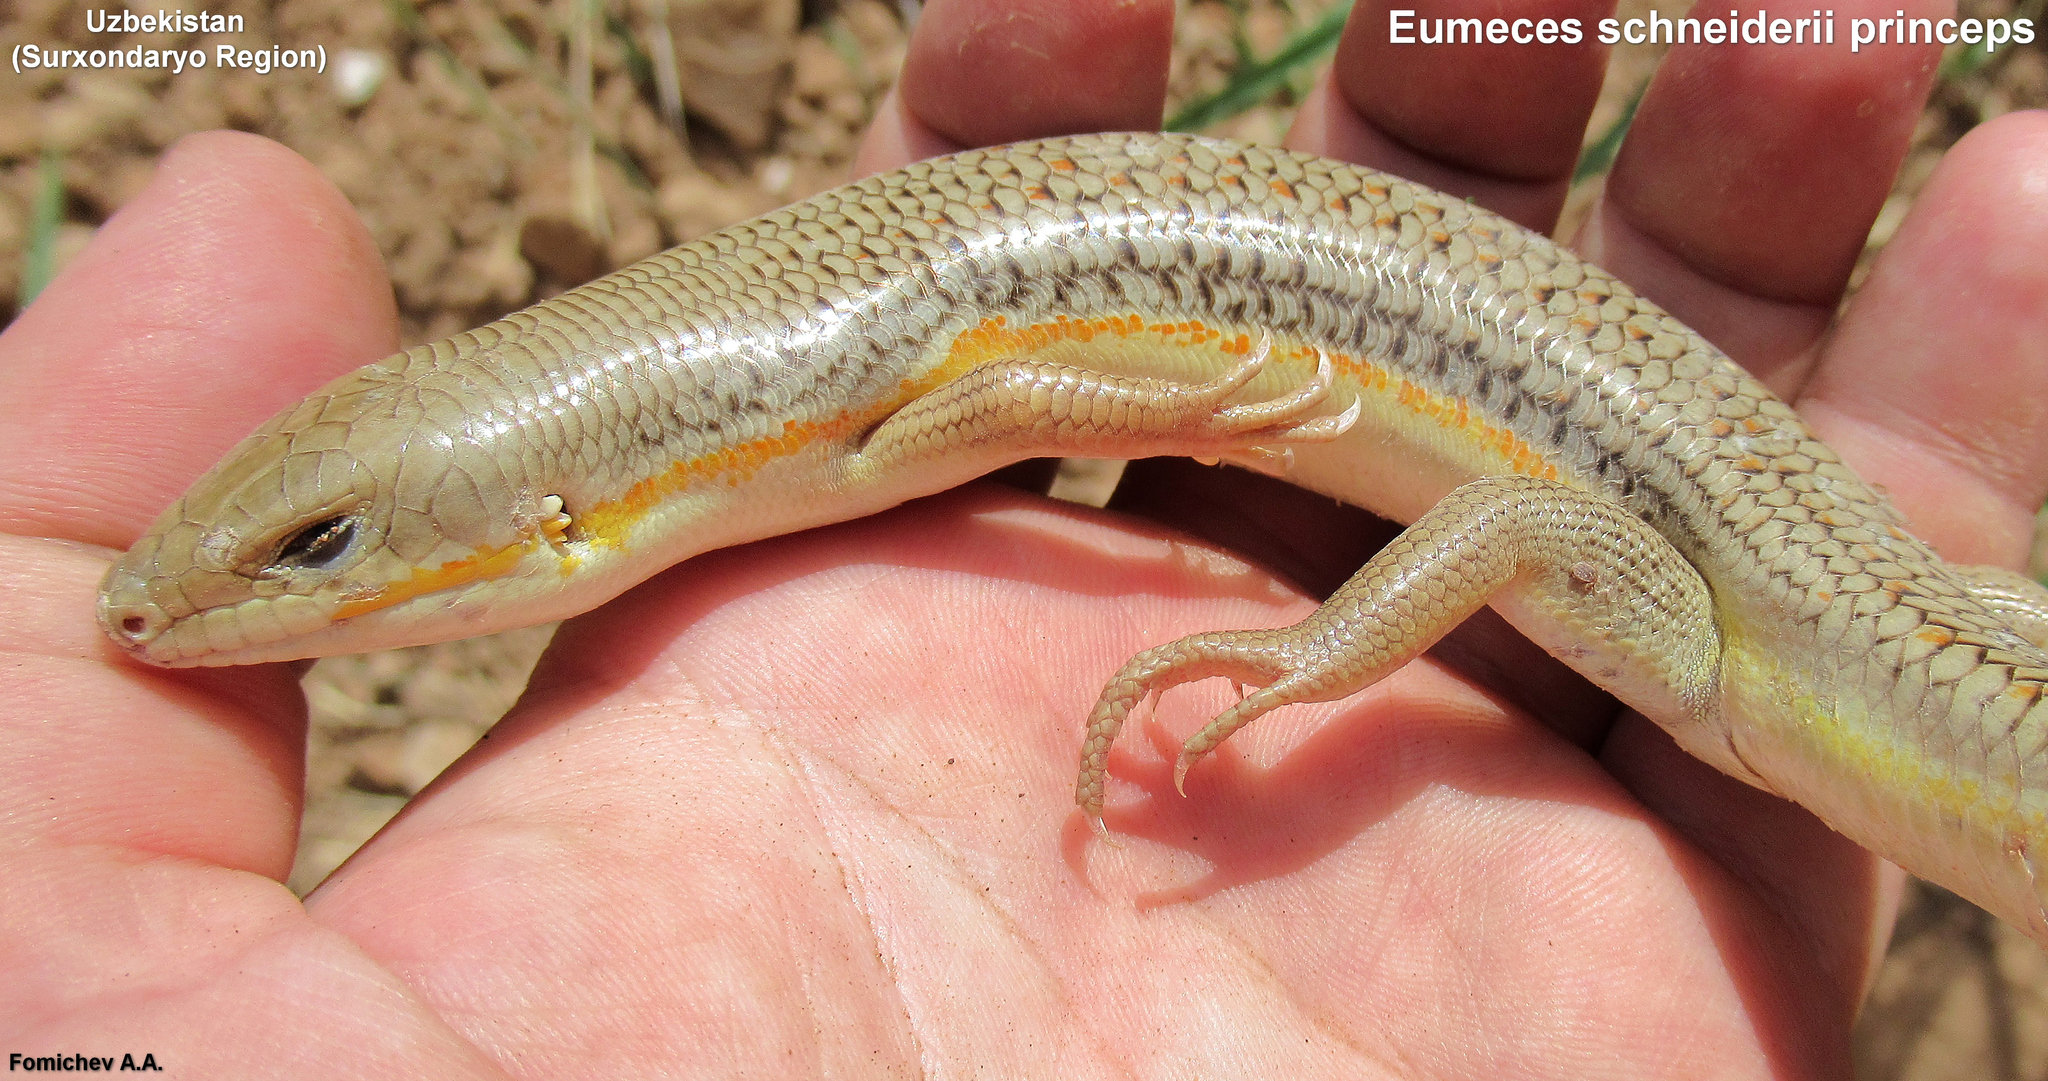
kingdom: Animalia
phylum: Chordata
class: Squamata
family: Scincidae
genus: Eumeces
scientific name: Eumeces schneiderii
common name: Schneider's skink
